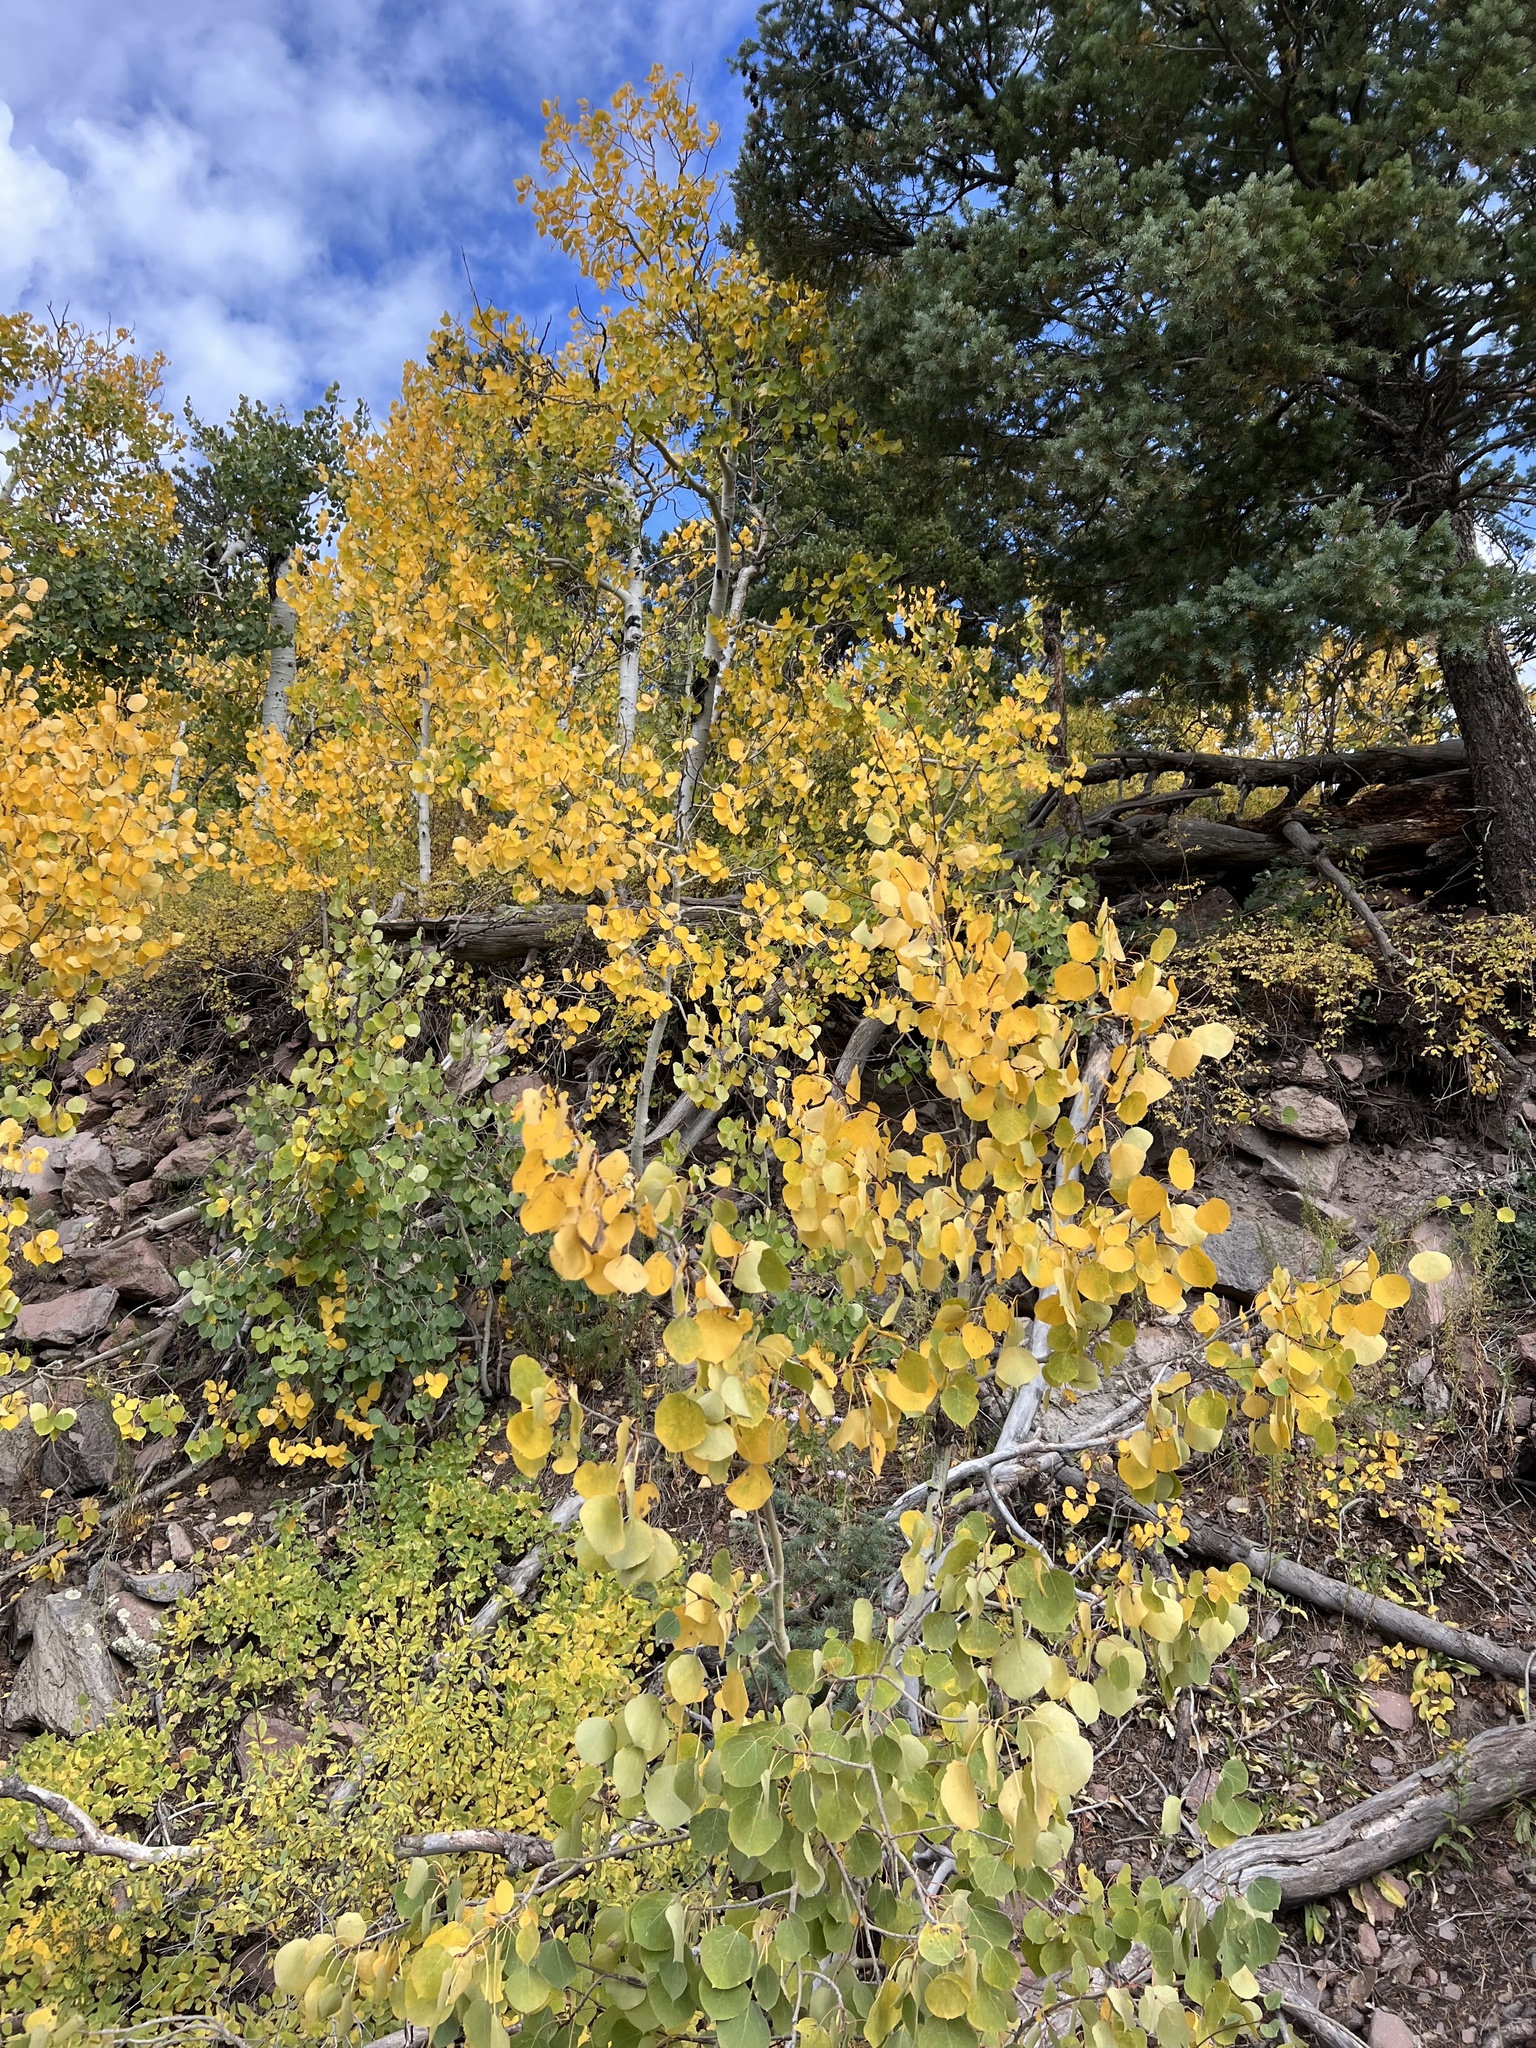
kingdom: Plantae
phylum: Tracheophyta
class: Magnoliopsida
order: Malpighiales
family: Salicaceae
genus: Populus
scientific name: Populus tremuloides
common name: Quaking aspen
